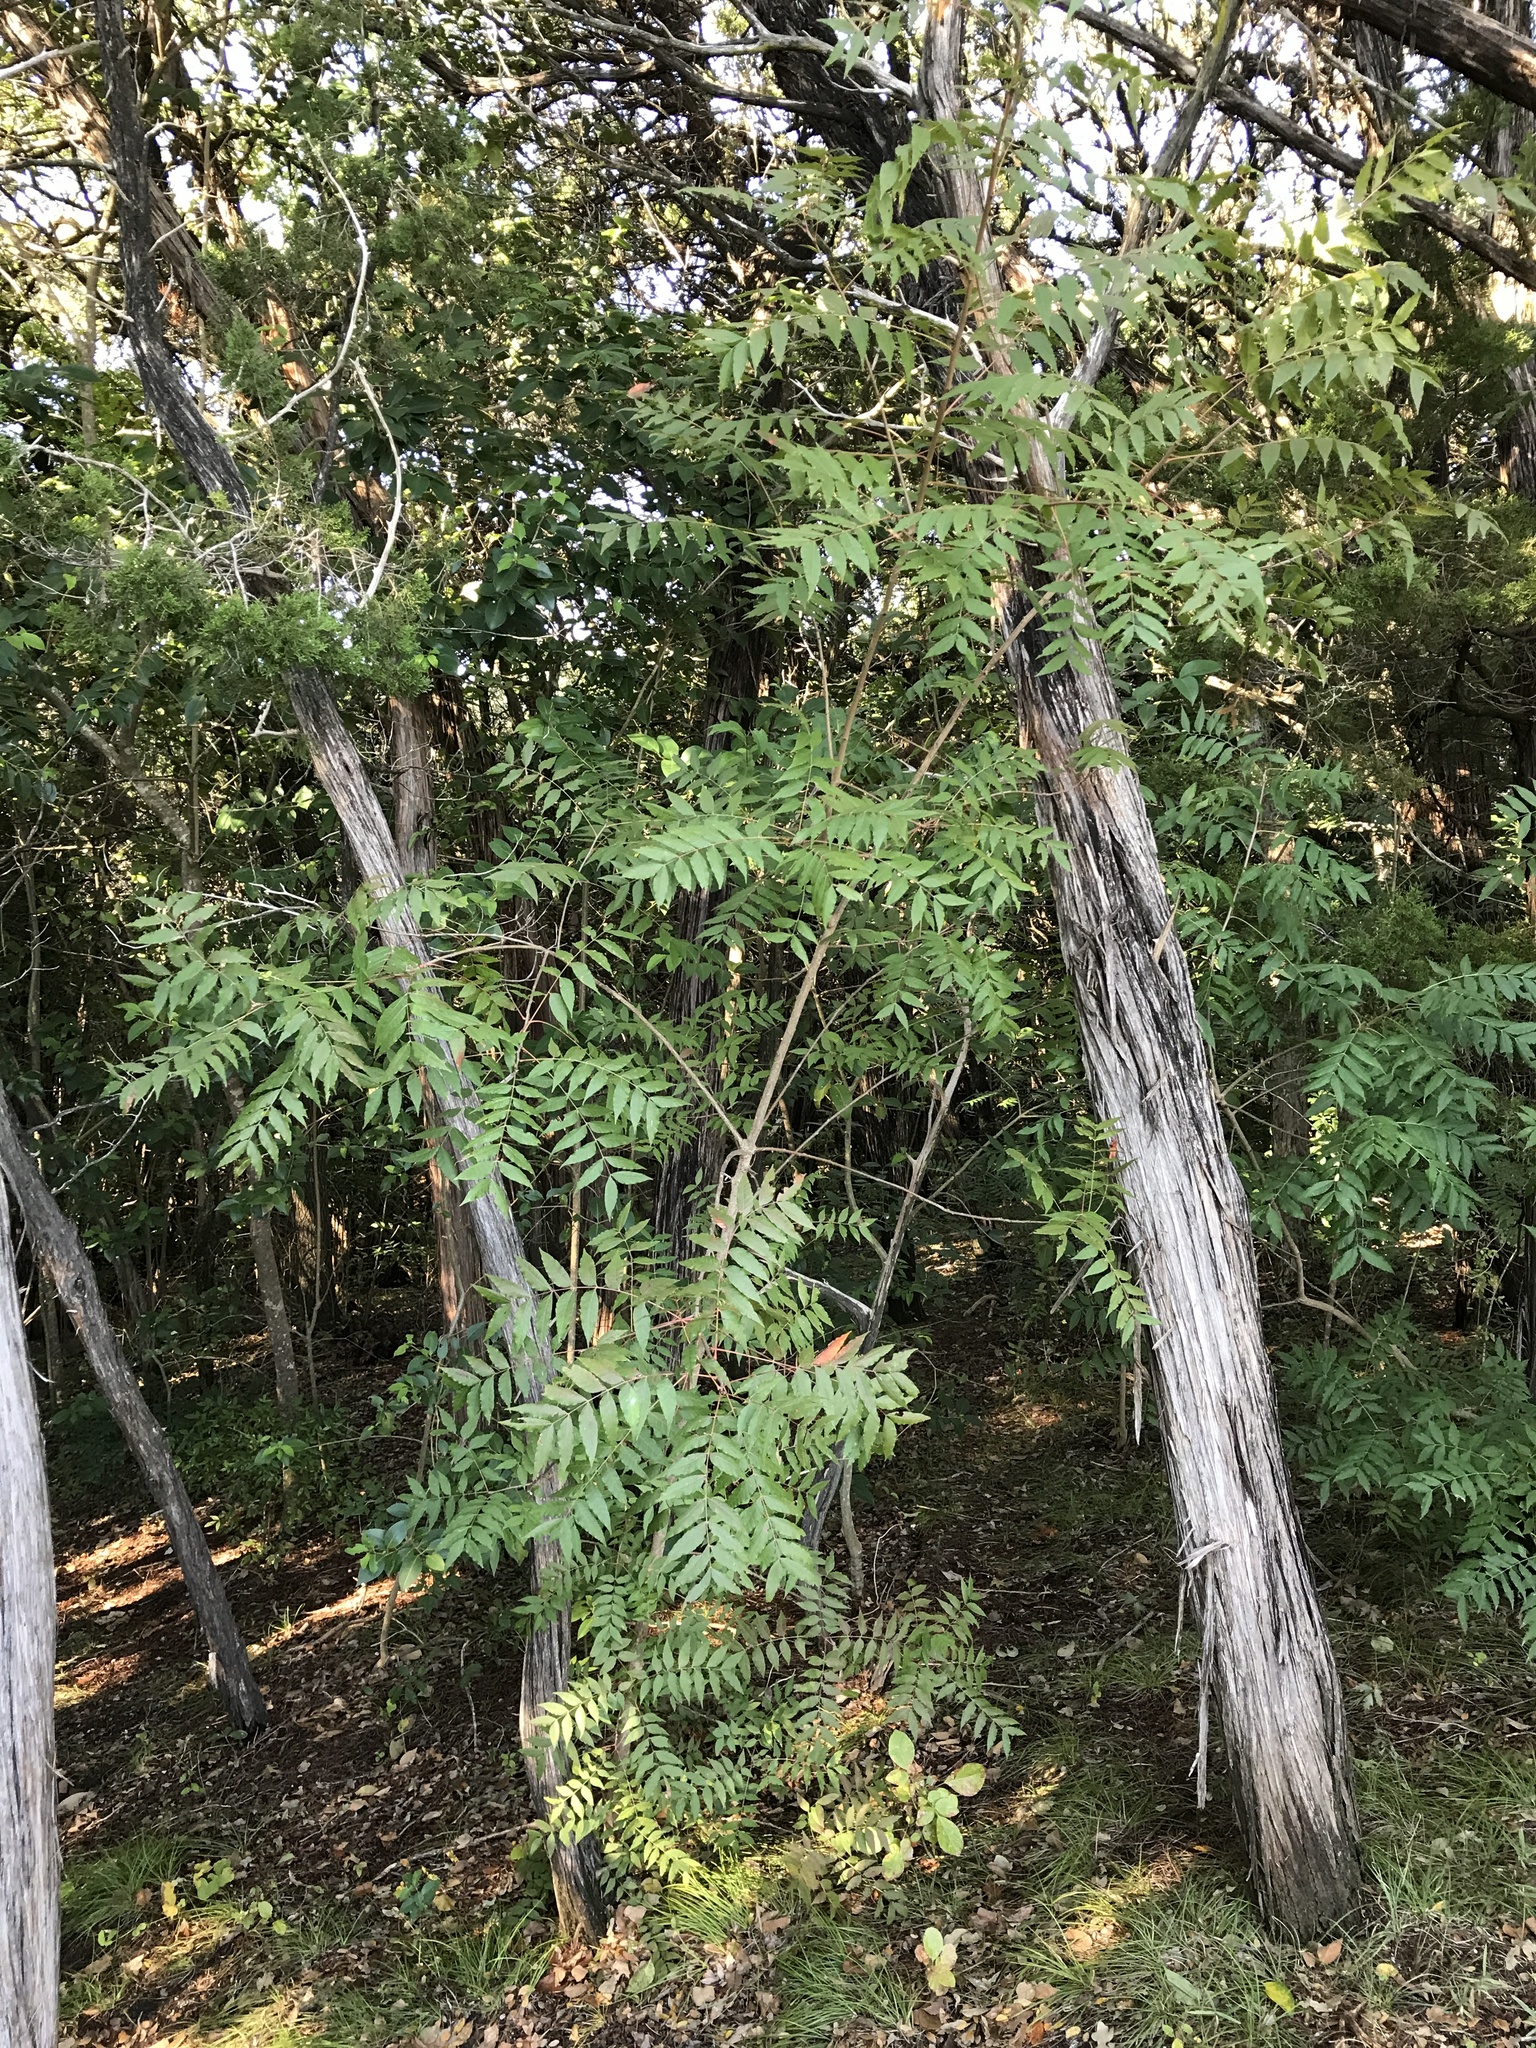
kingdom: Plantae
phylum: Tracheophyta
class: Magnoliopsida
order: Sapindales
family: Anacardiaceae
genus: Pistacia
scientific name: Pistacia chinensis
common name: Chinese pistache
